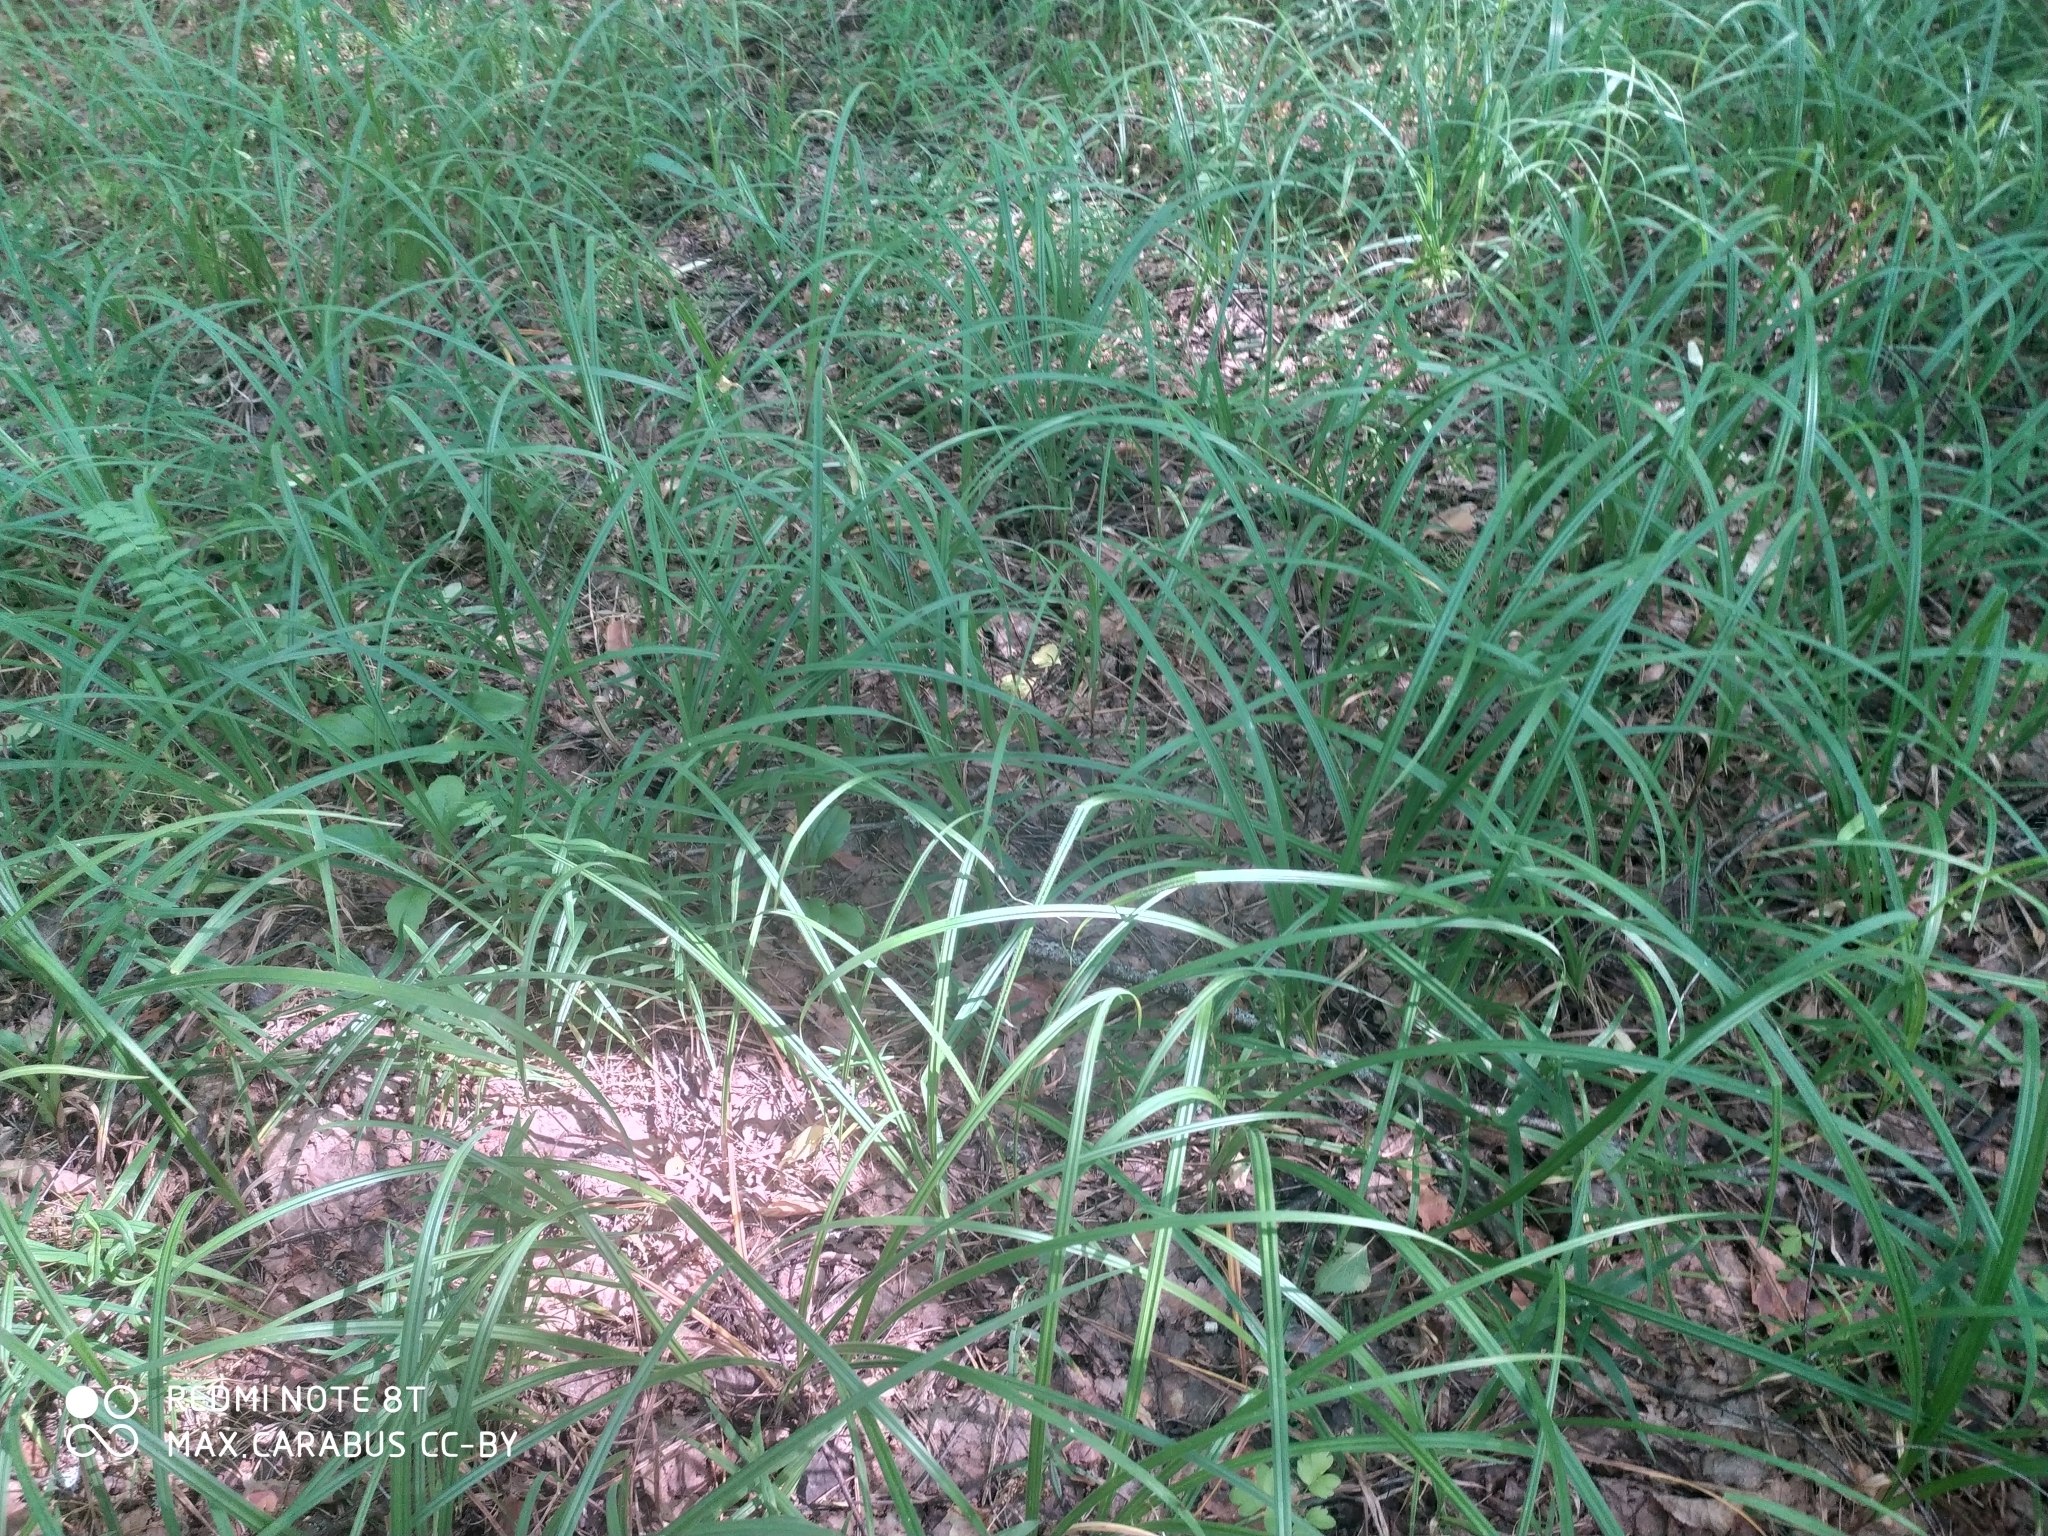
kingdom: Plantae
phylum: Tracheophyta
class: Liliopsida
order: Poales
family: Cyperaceae
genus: Carex
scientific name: Carex pilosa
